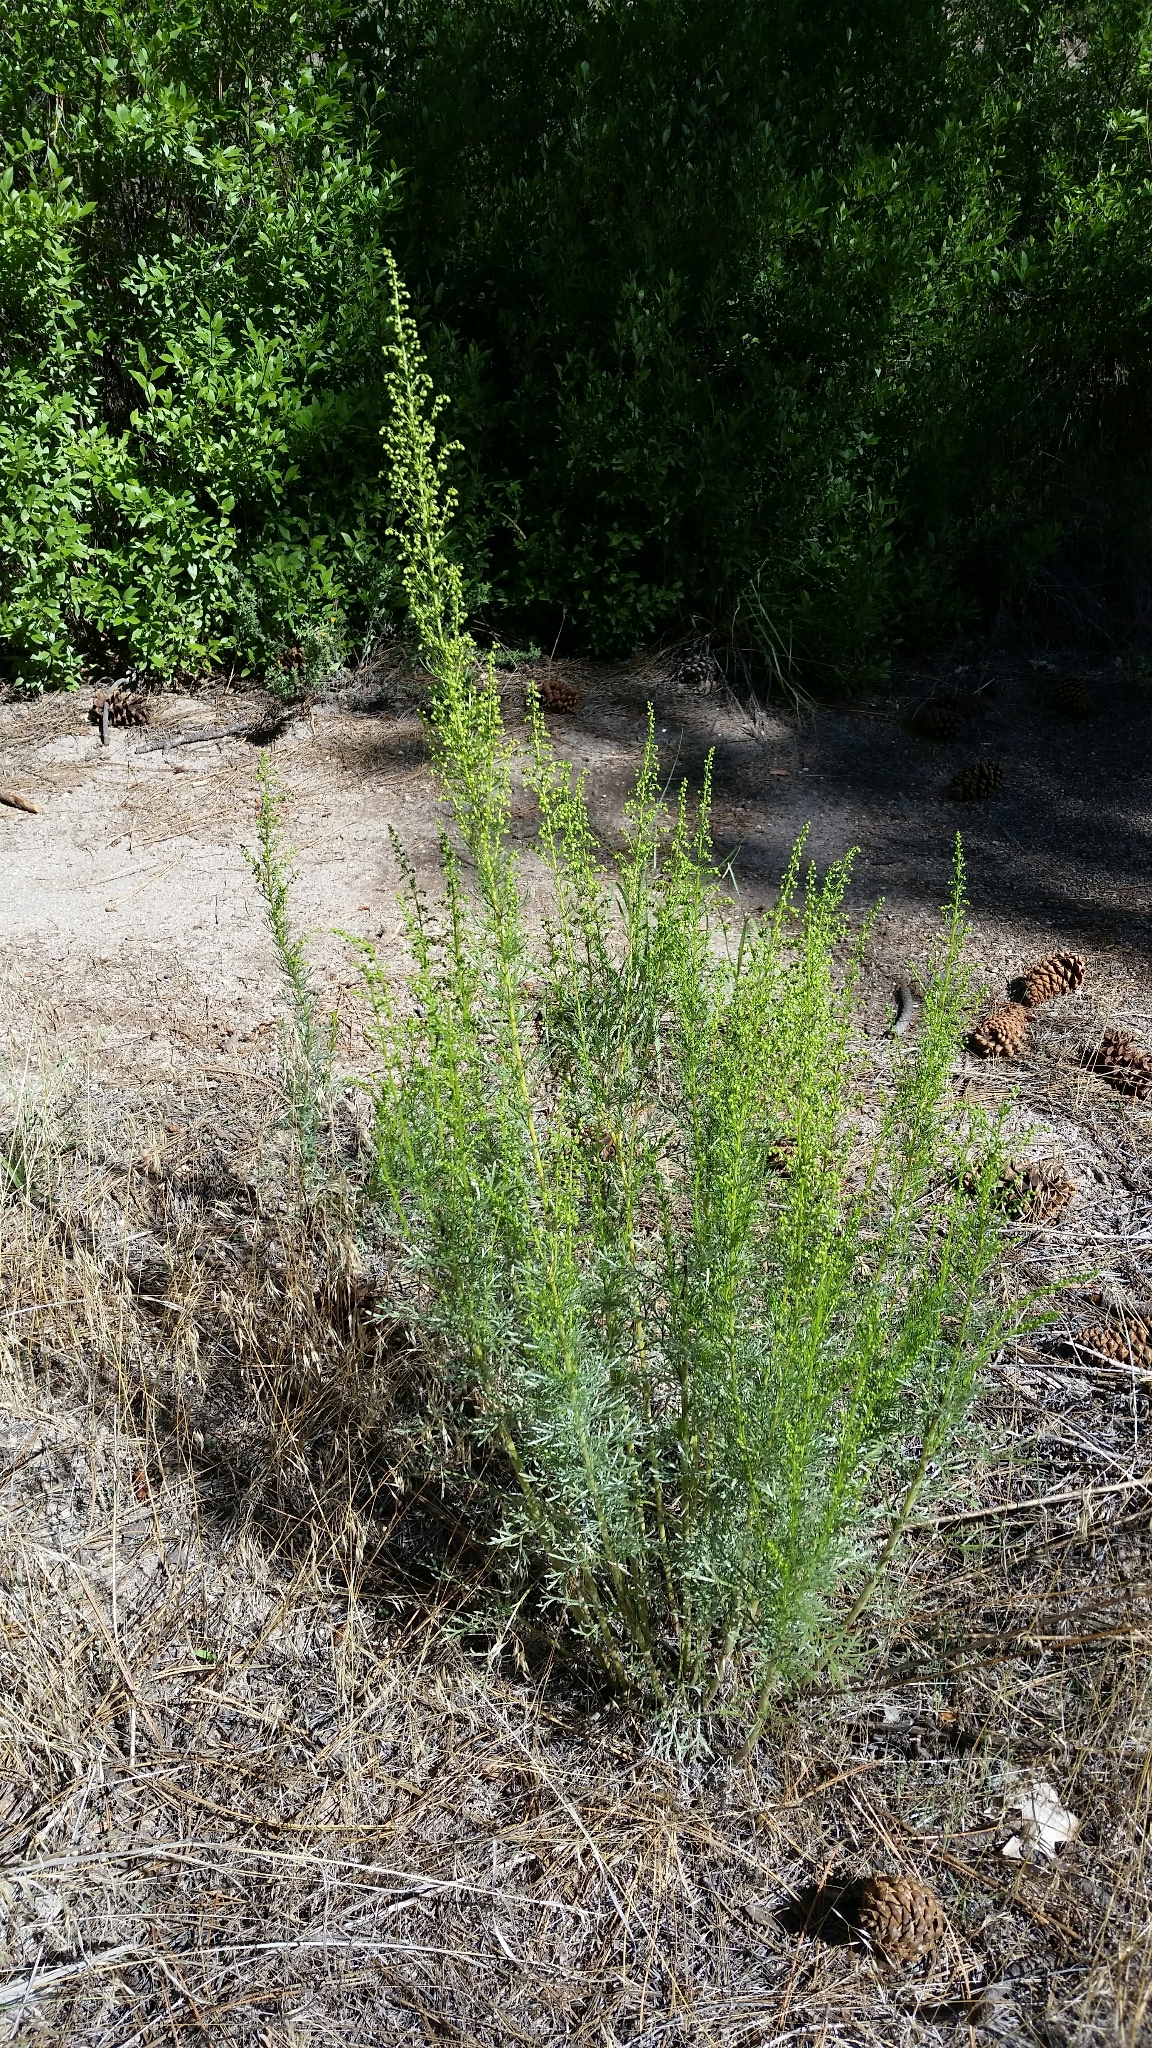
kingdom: Plantae
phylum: Tracheophyta
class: Magnoliopsida
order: Asterales
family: Asteraceae
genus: Artemisia
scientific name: Artemisia campestris
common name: Field wormwood
